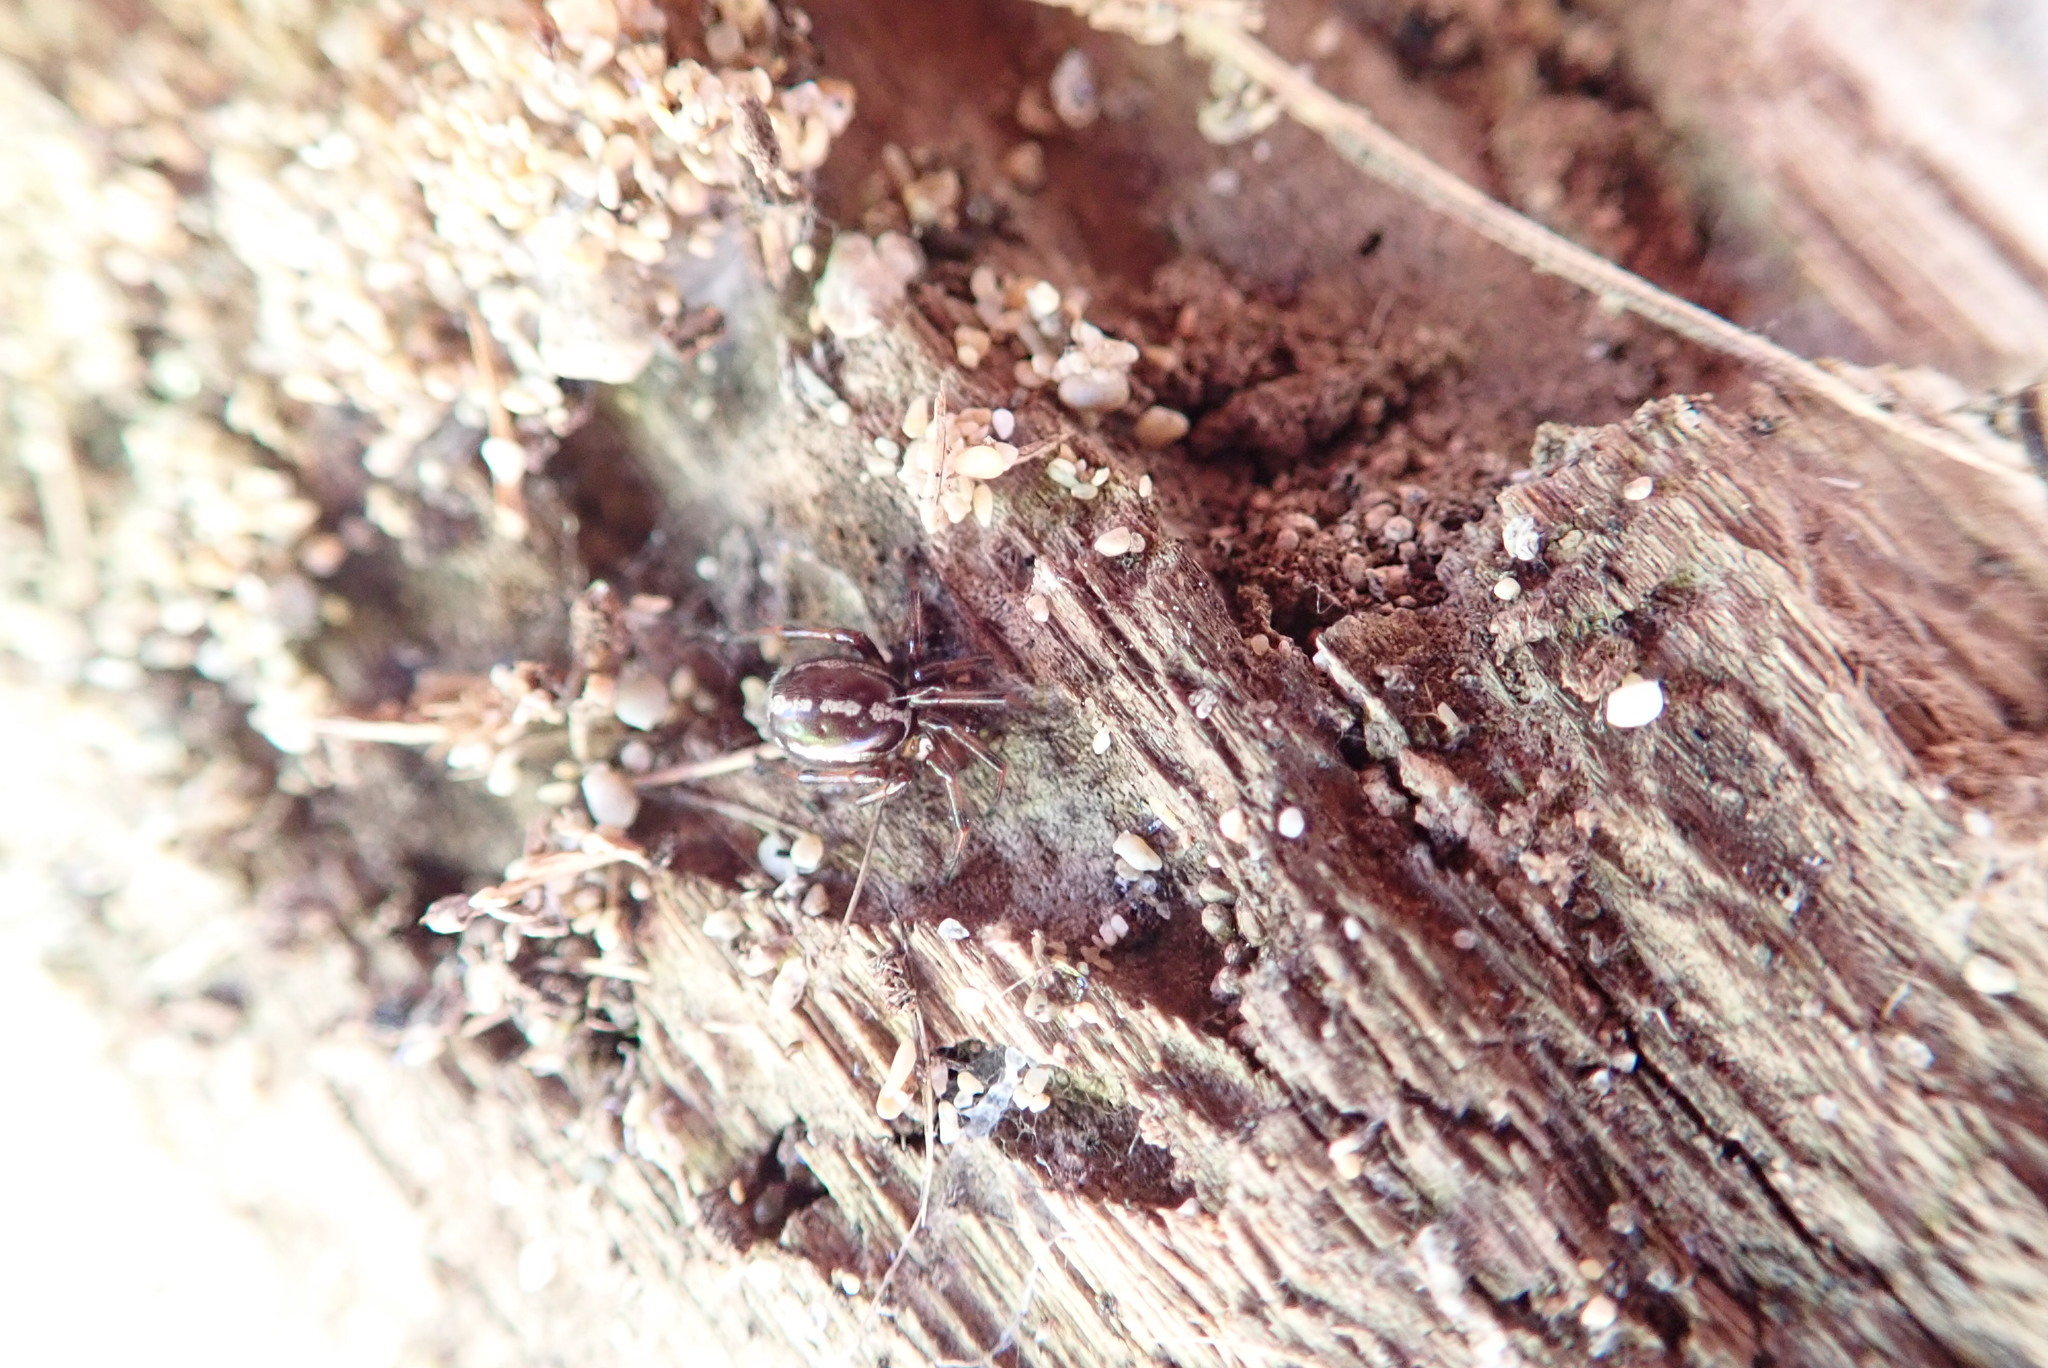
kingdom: Animalia
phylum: Arthropoda
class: Arachnida
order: Araneae
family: Theridiidae
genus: Steatoda
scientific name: Steatoda lepida
